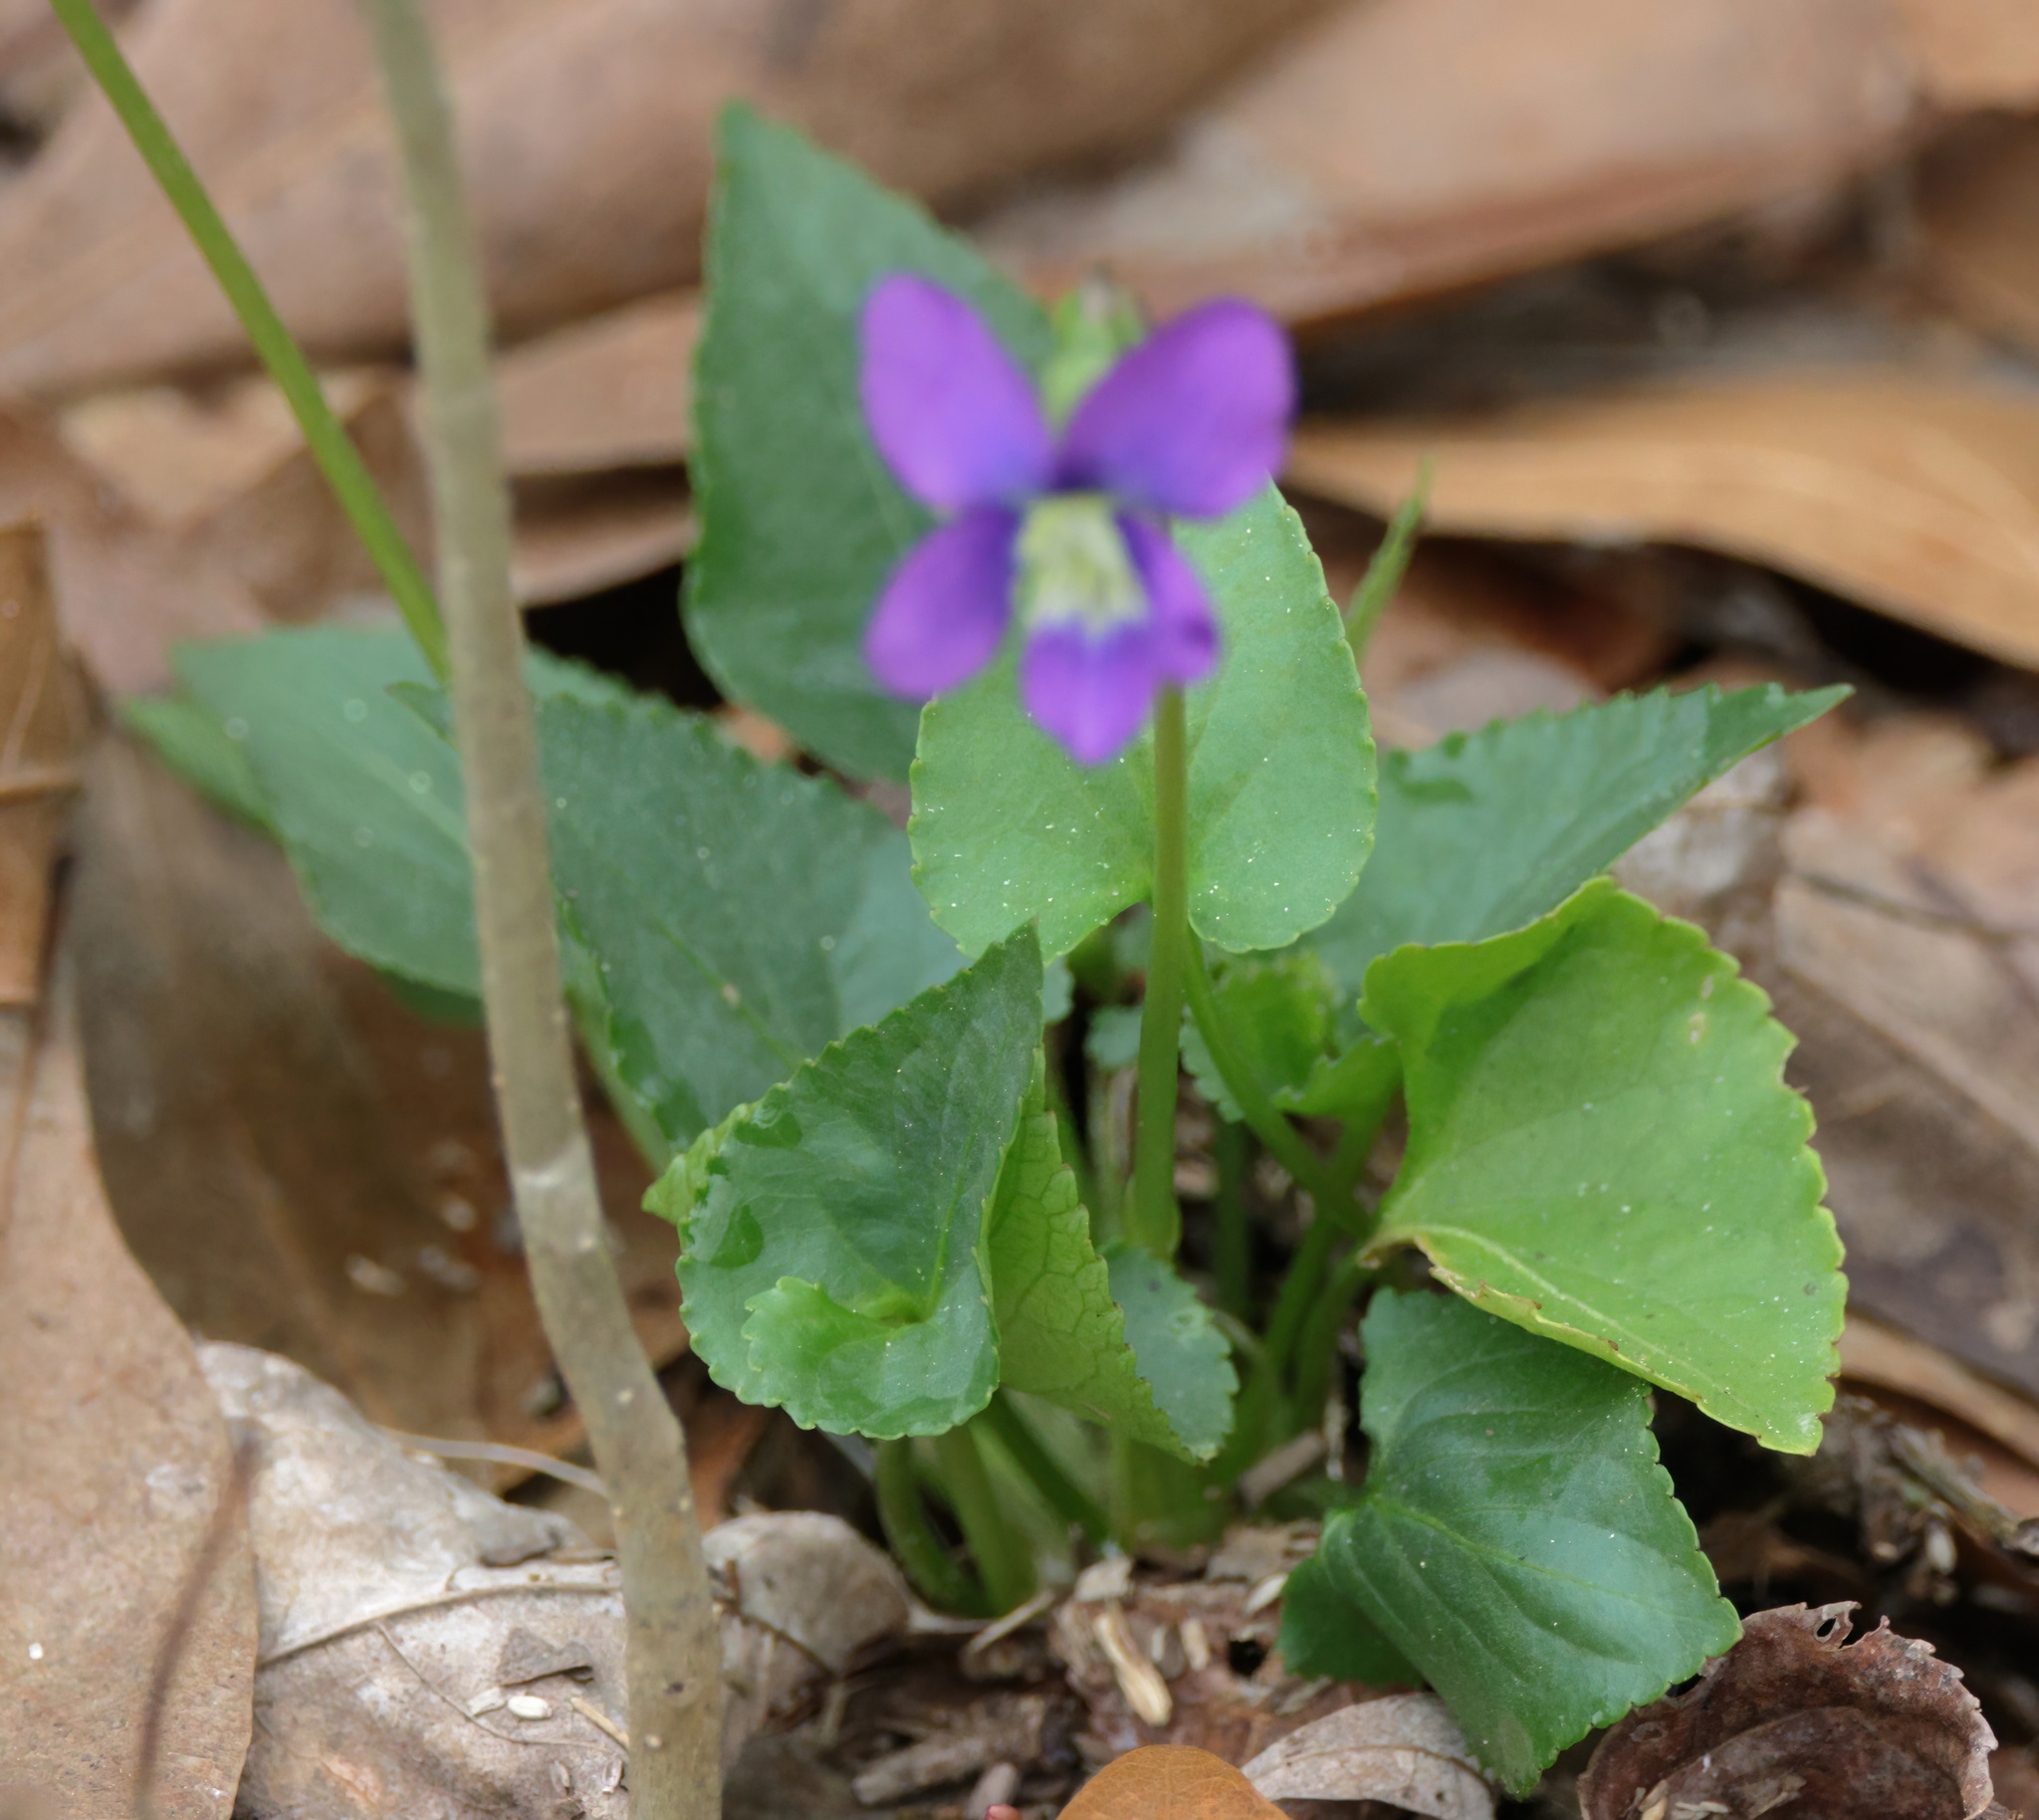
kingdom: Plantae
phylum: Tracheophyta
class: Magnoliopsida
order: Malpighiales
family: Violaceae
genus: Viola
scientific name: Viola sororia
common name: Dooryard violet
